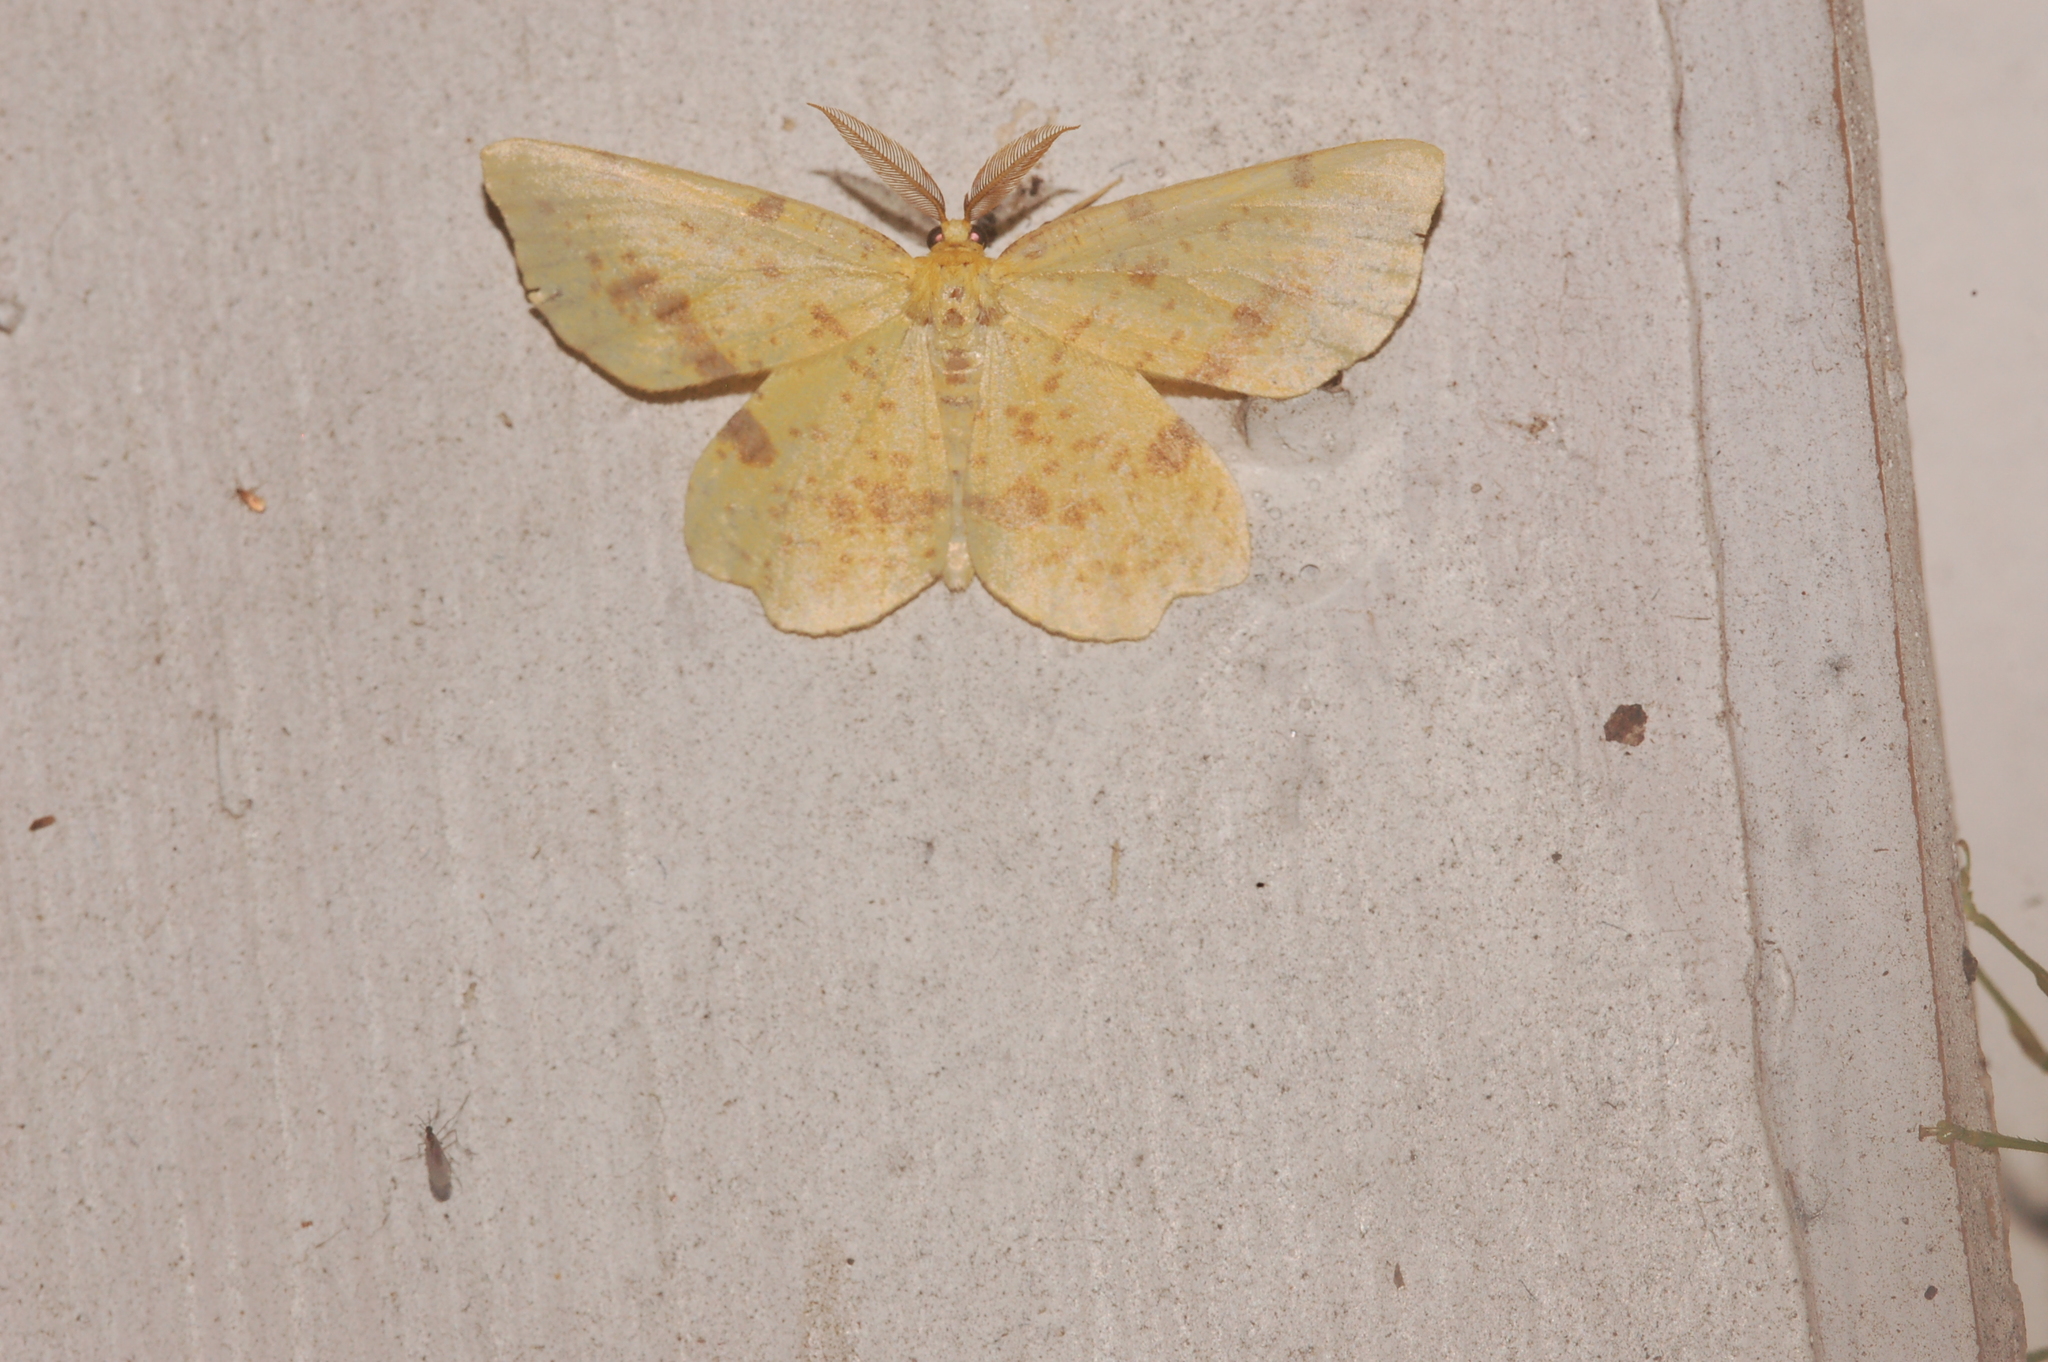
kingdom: Animalia
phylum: Arthropoda
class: Insecta
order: Lepidoptera
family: Geometridae
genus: Xanthotype
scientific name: Xanthotype
